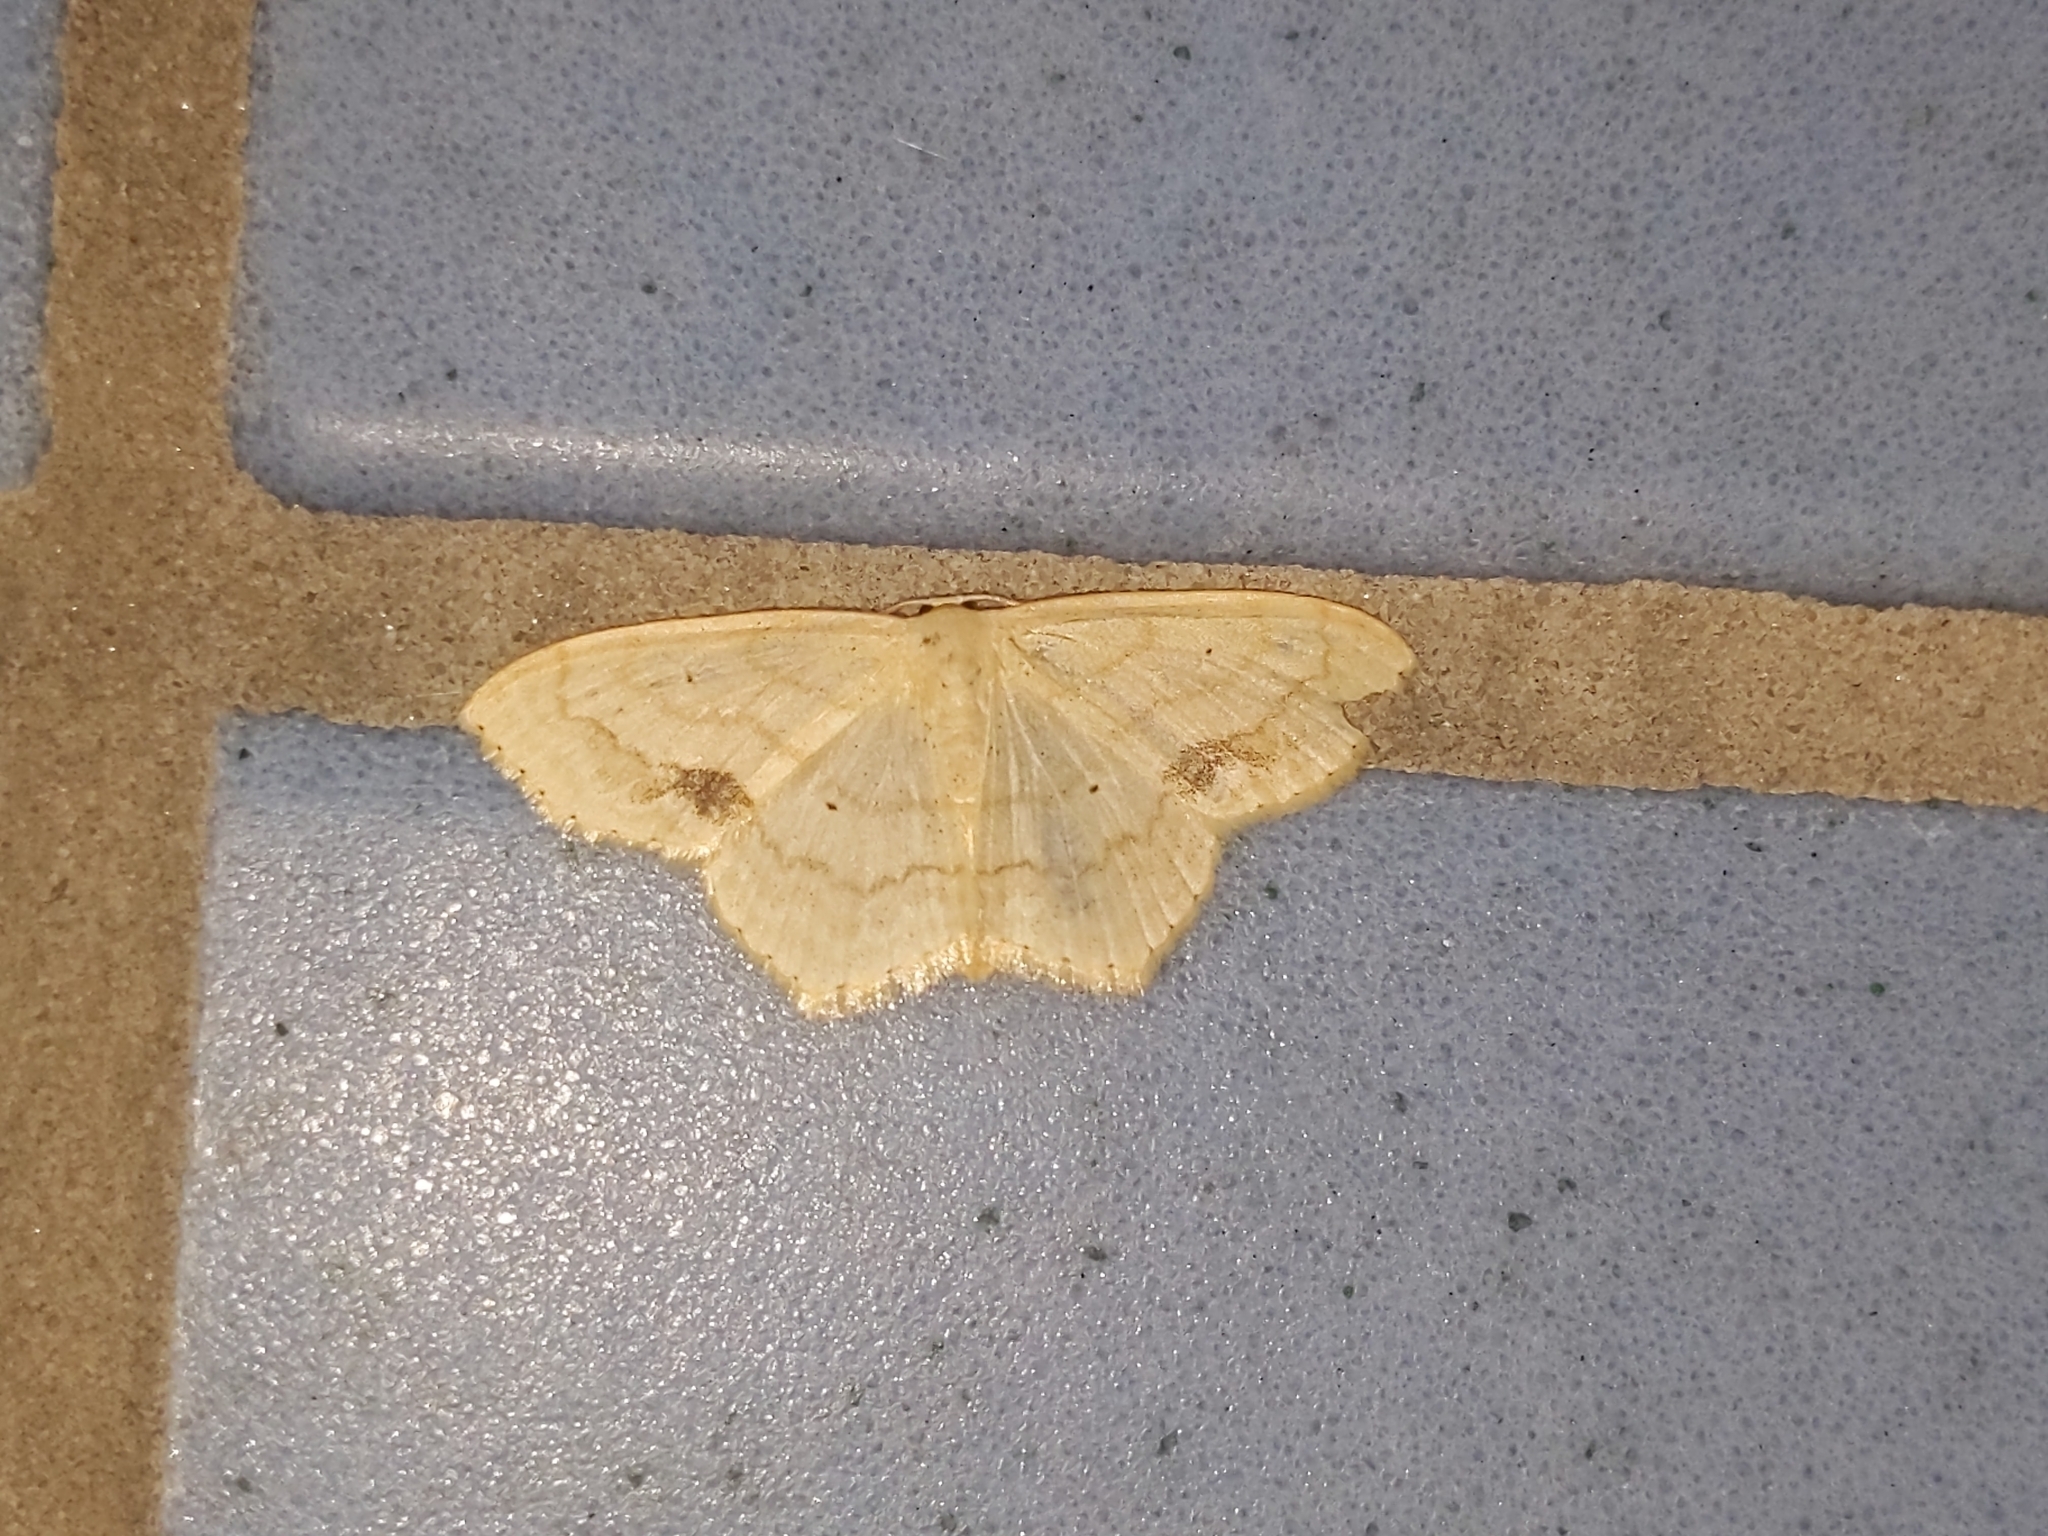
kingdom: Animalia
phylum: Arthropoda
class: Insecta
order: Lepidoptera
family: Geometridae
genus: Scopula
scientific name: Scopula limboundata
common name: Large lace border
